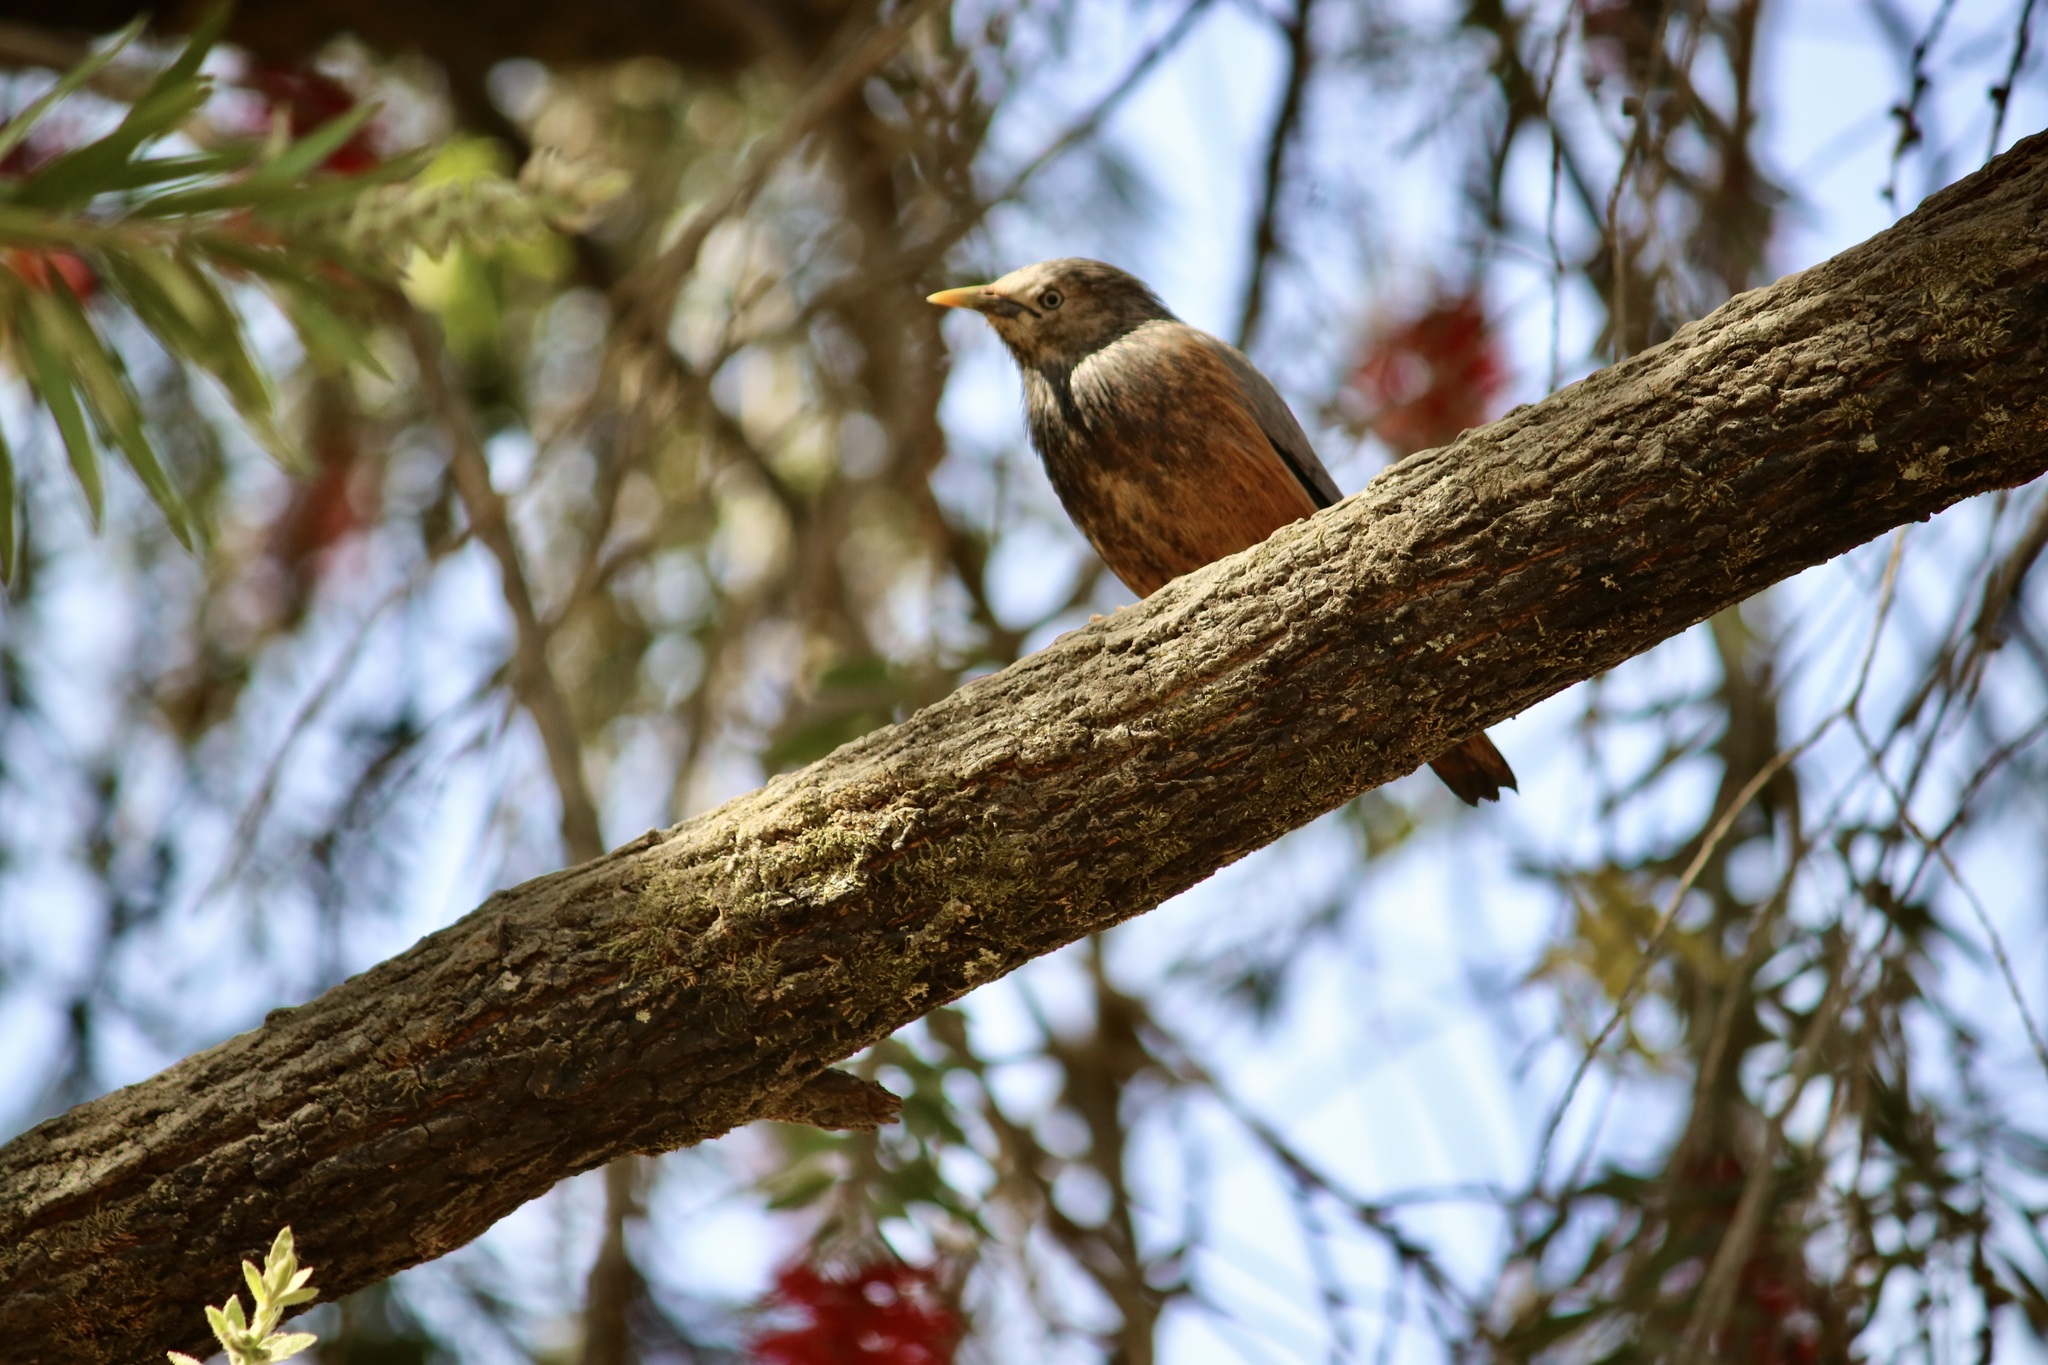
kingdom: Animalia
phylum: Chordata
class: Aves
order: Passeriformes
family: Sturnidae
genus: Sturnia
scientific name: Sturnia malabarica
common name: Chestnut-tailed starling
